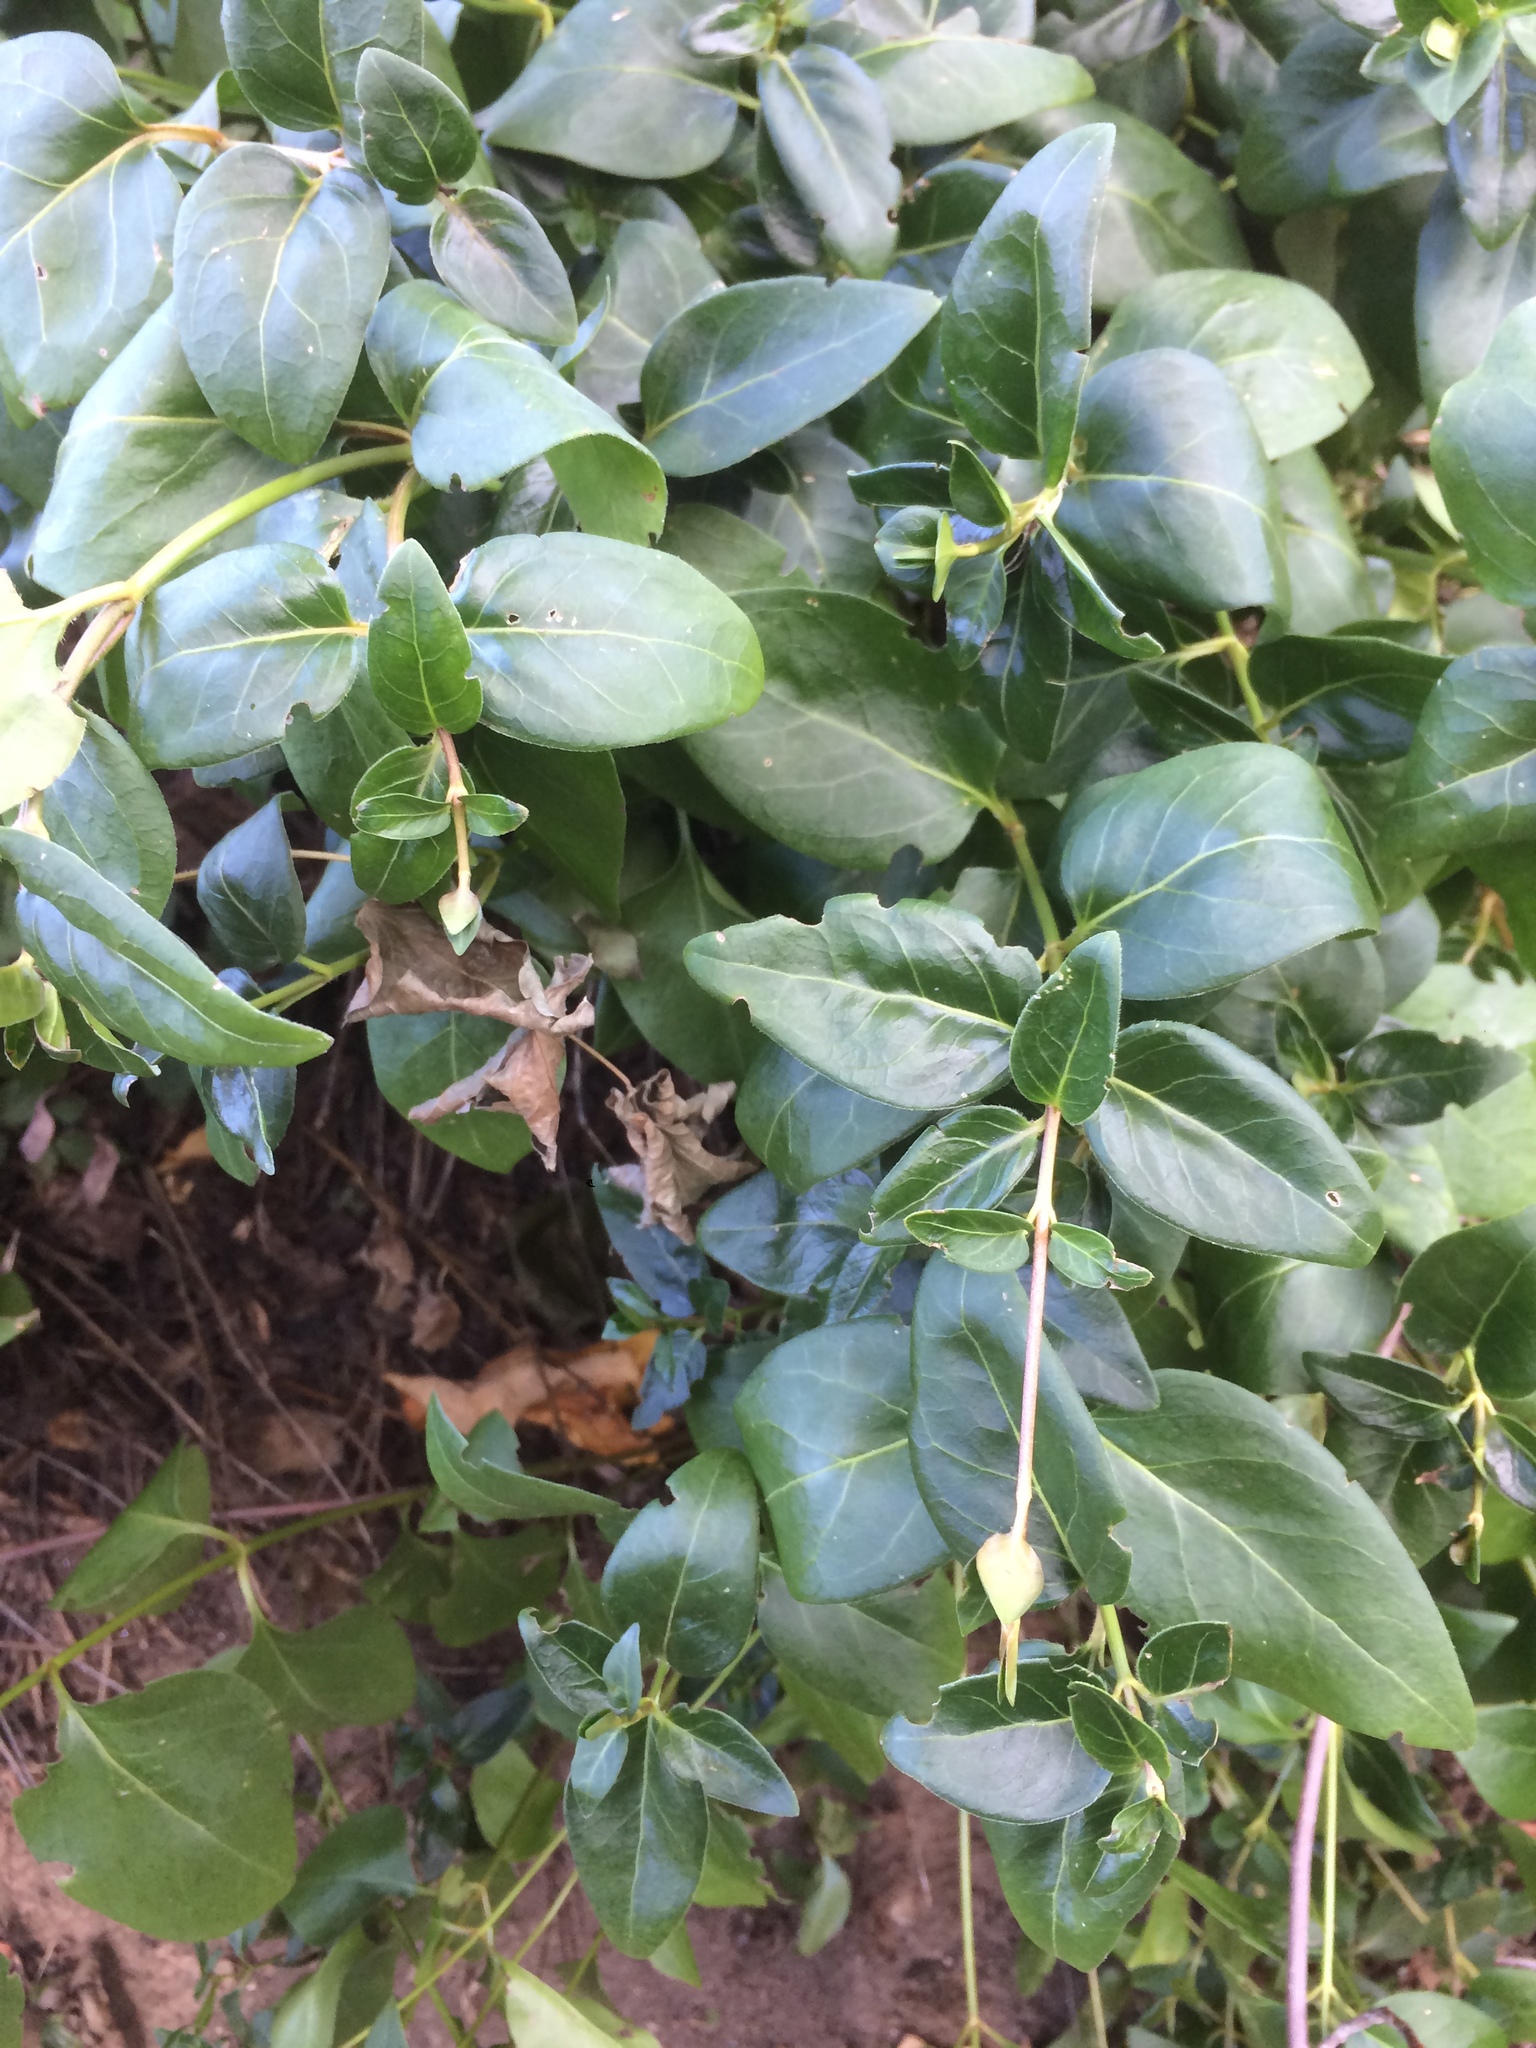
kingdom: Plantae
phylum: Tracheophyta
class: Magnoliopsida
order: Gentianales
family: Apocynaceae
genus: Vinca
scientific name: Vinca major
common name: Greater periwinkle
